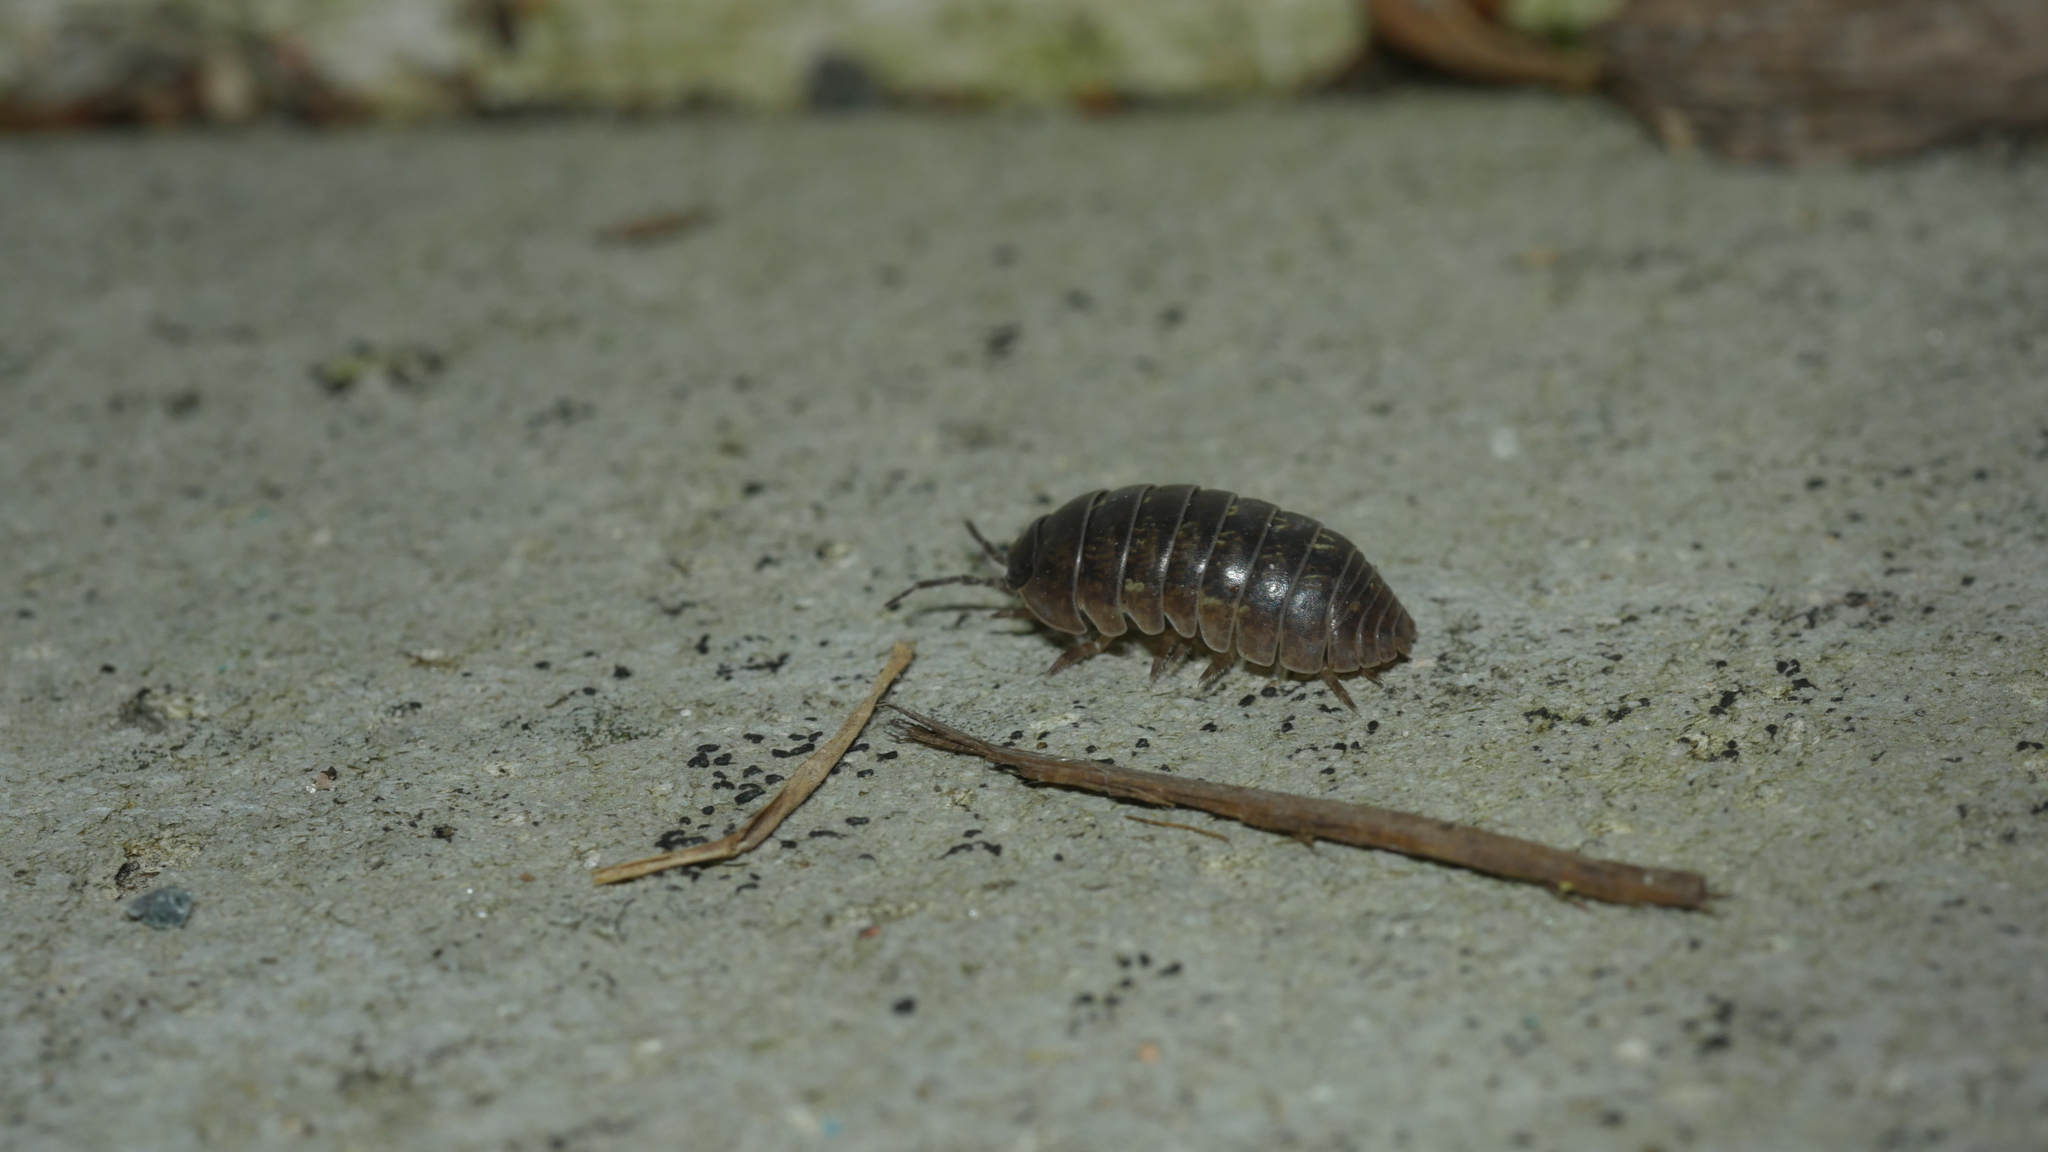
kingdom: Animalia
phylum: Arthropoda
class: Malacostraca
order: Isopoda
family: Armadillidiidae
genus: Armadillidium
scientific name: Armadillidium vulgare
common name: Common pill woodlouse
